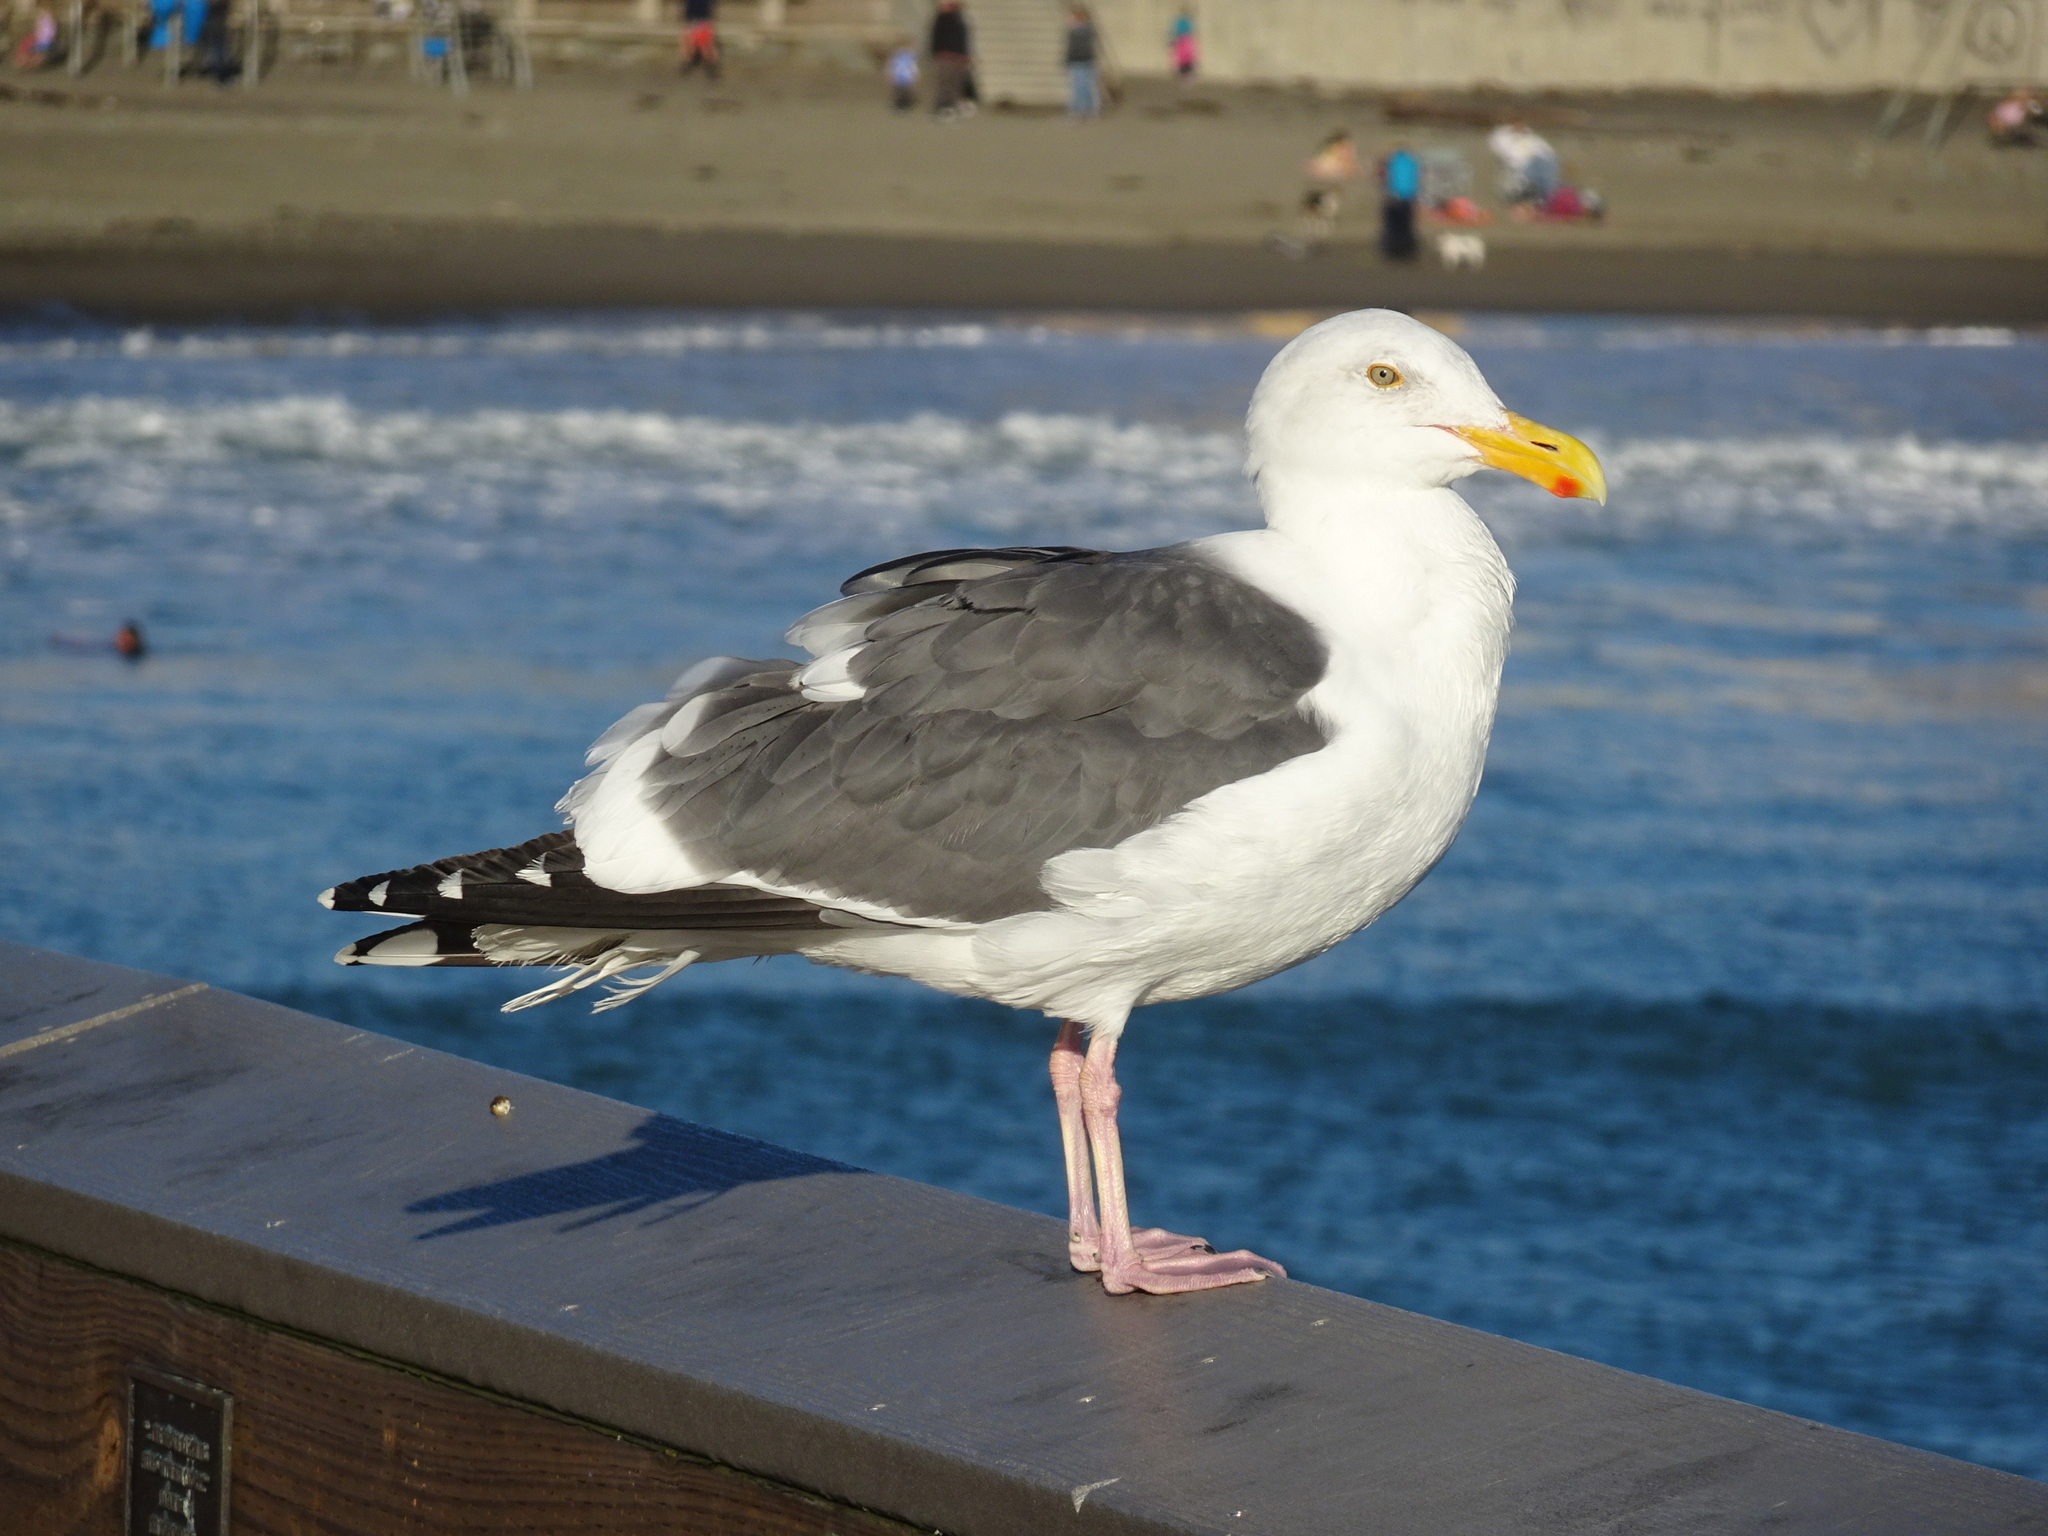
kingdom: Animalia
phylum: Chordata
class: Aves
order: Charadriiformes
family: Laridae
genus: Larus
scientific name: Larus occidentalis
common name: Western gull
